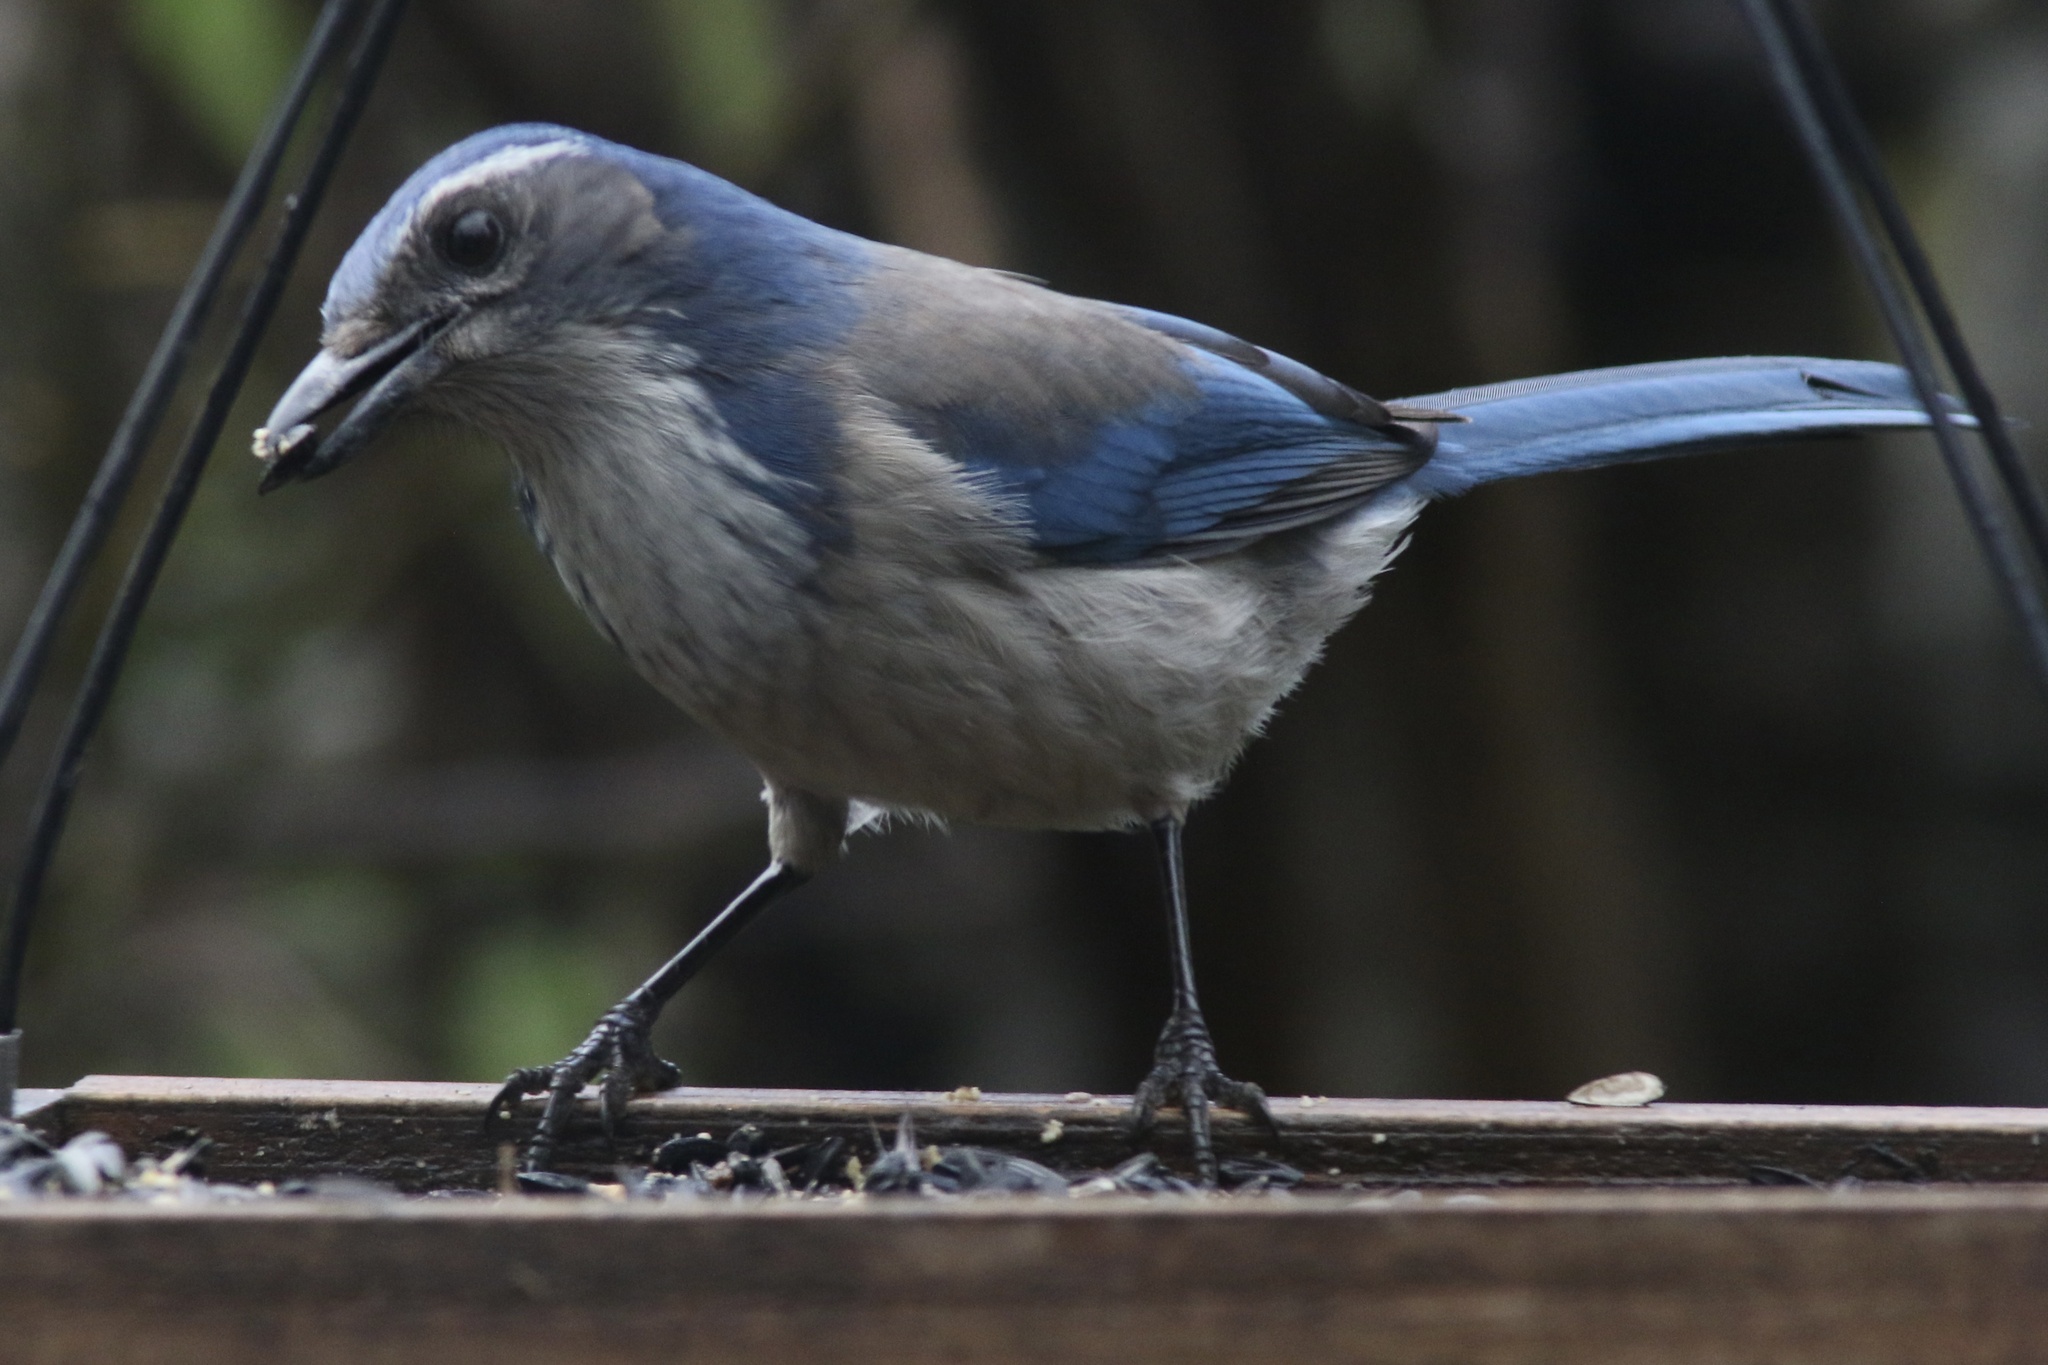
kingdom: Animalia
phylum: Chordata
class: Aves
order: Passeriformes
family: Corvidae
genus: Aphelocoma
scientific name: Aphelocoma californica
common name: California scrub-jay
